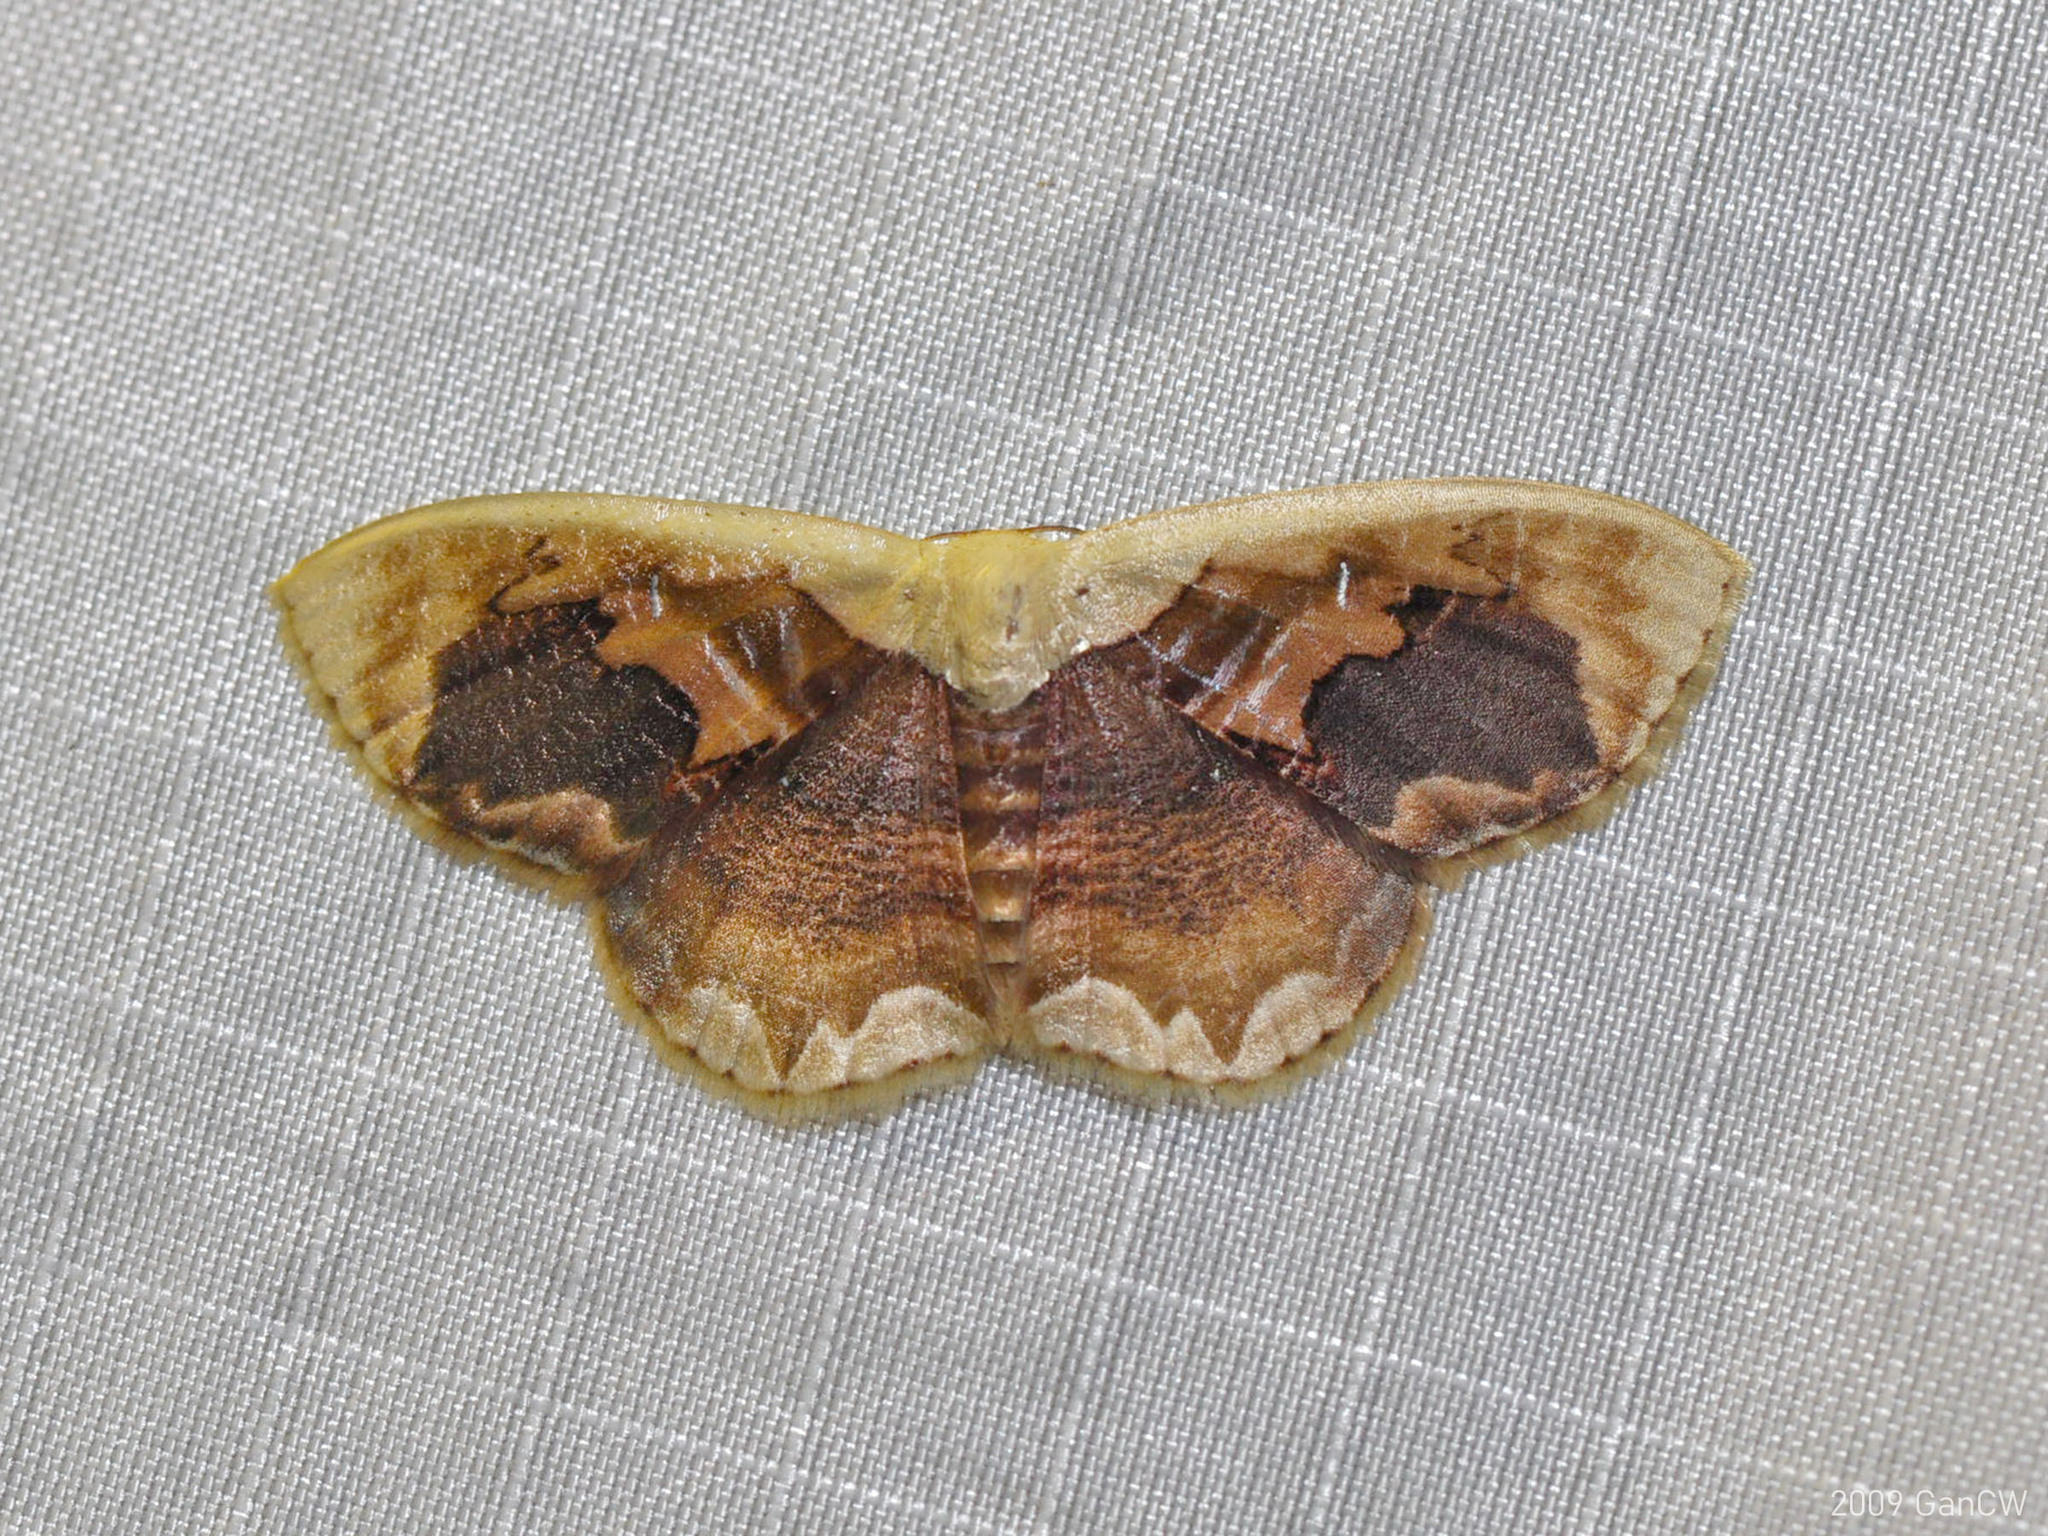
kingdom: Animalia
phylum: Arthropoda
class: Insecta
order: Lepidoptera
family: Geometridae
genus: Lipomelia
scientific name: Lipomelia subusta
